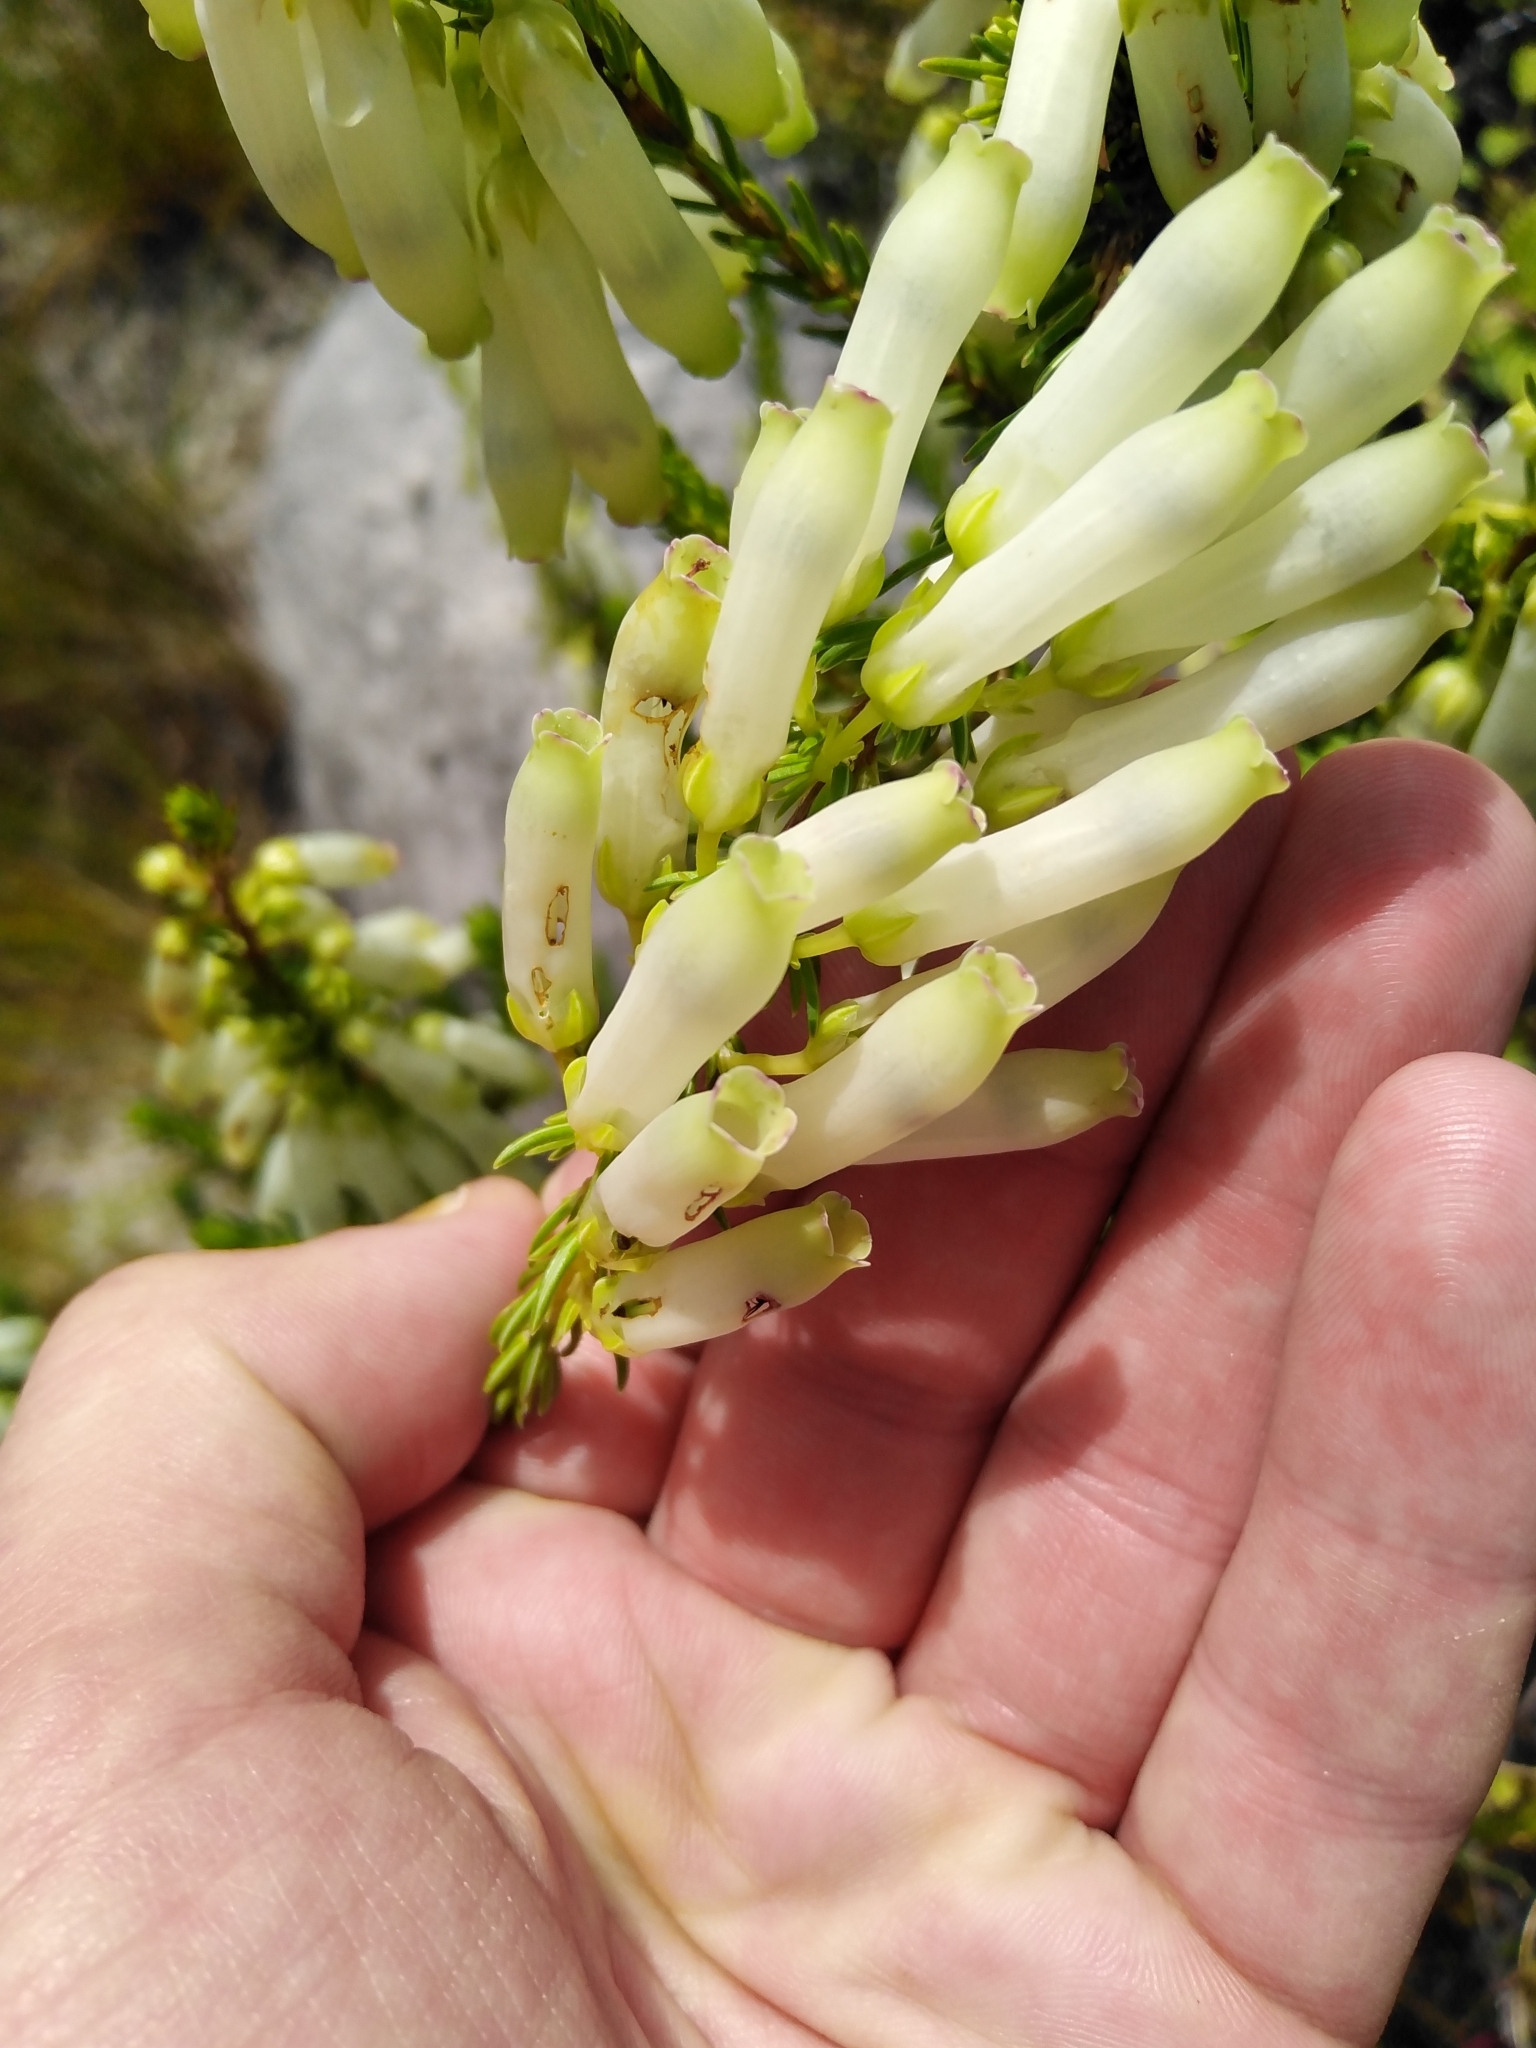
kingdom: Plantae
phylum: Tracheophyta
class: Magnoliopsida
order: Ericales
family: Ericaceae
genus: Erica
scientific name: Erica mammosa
